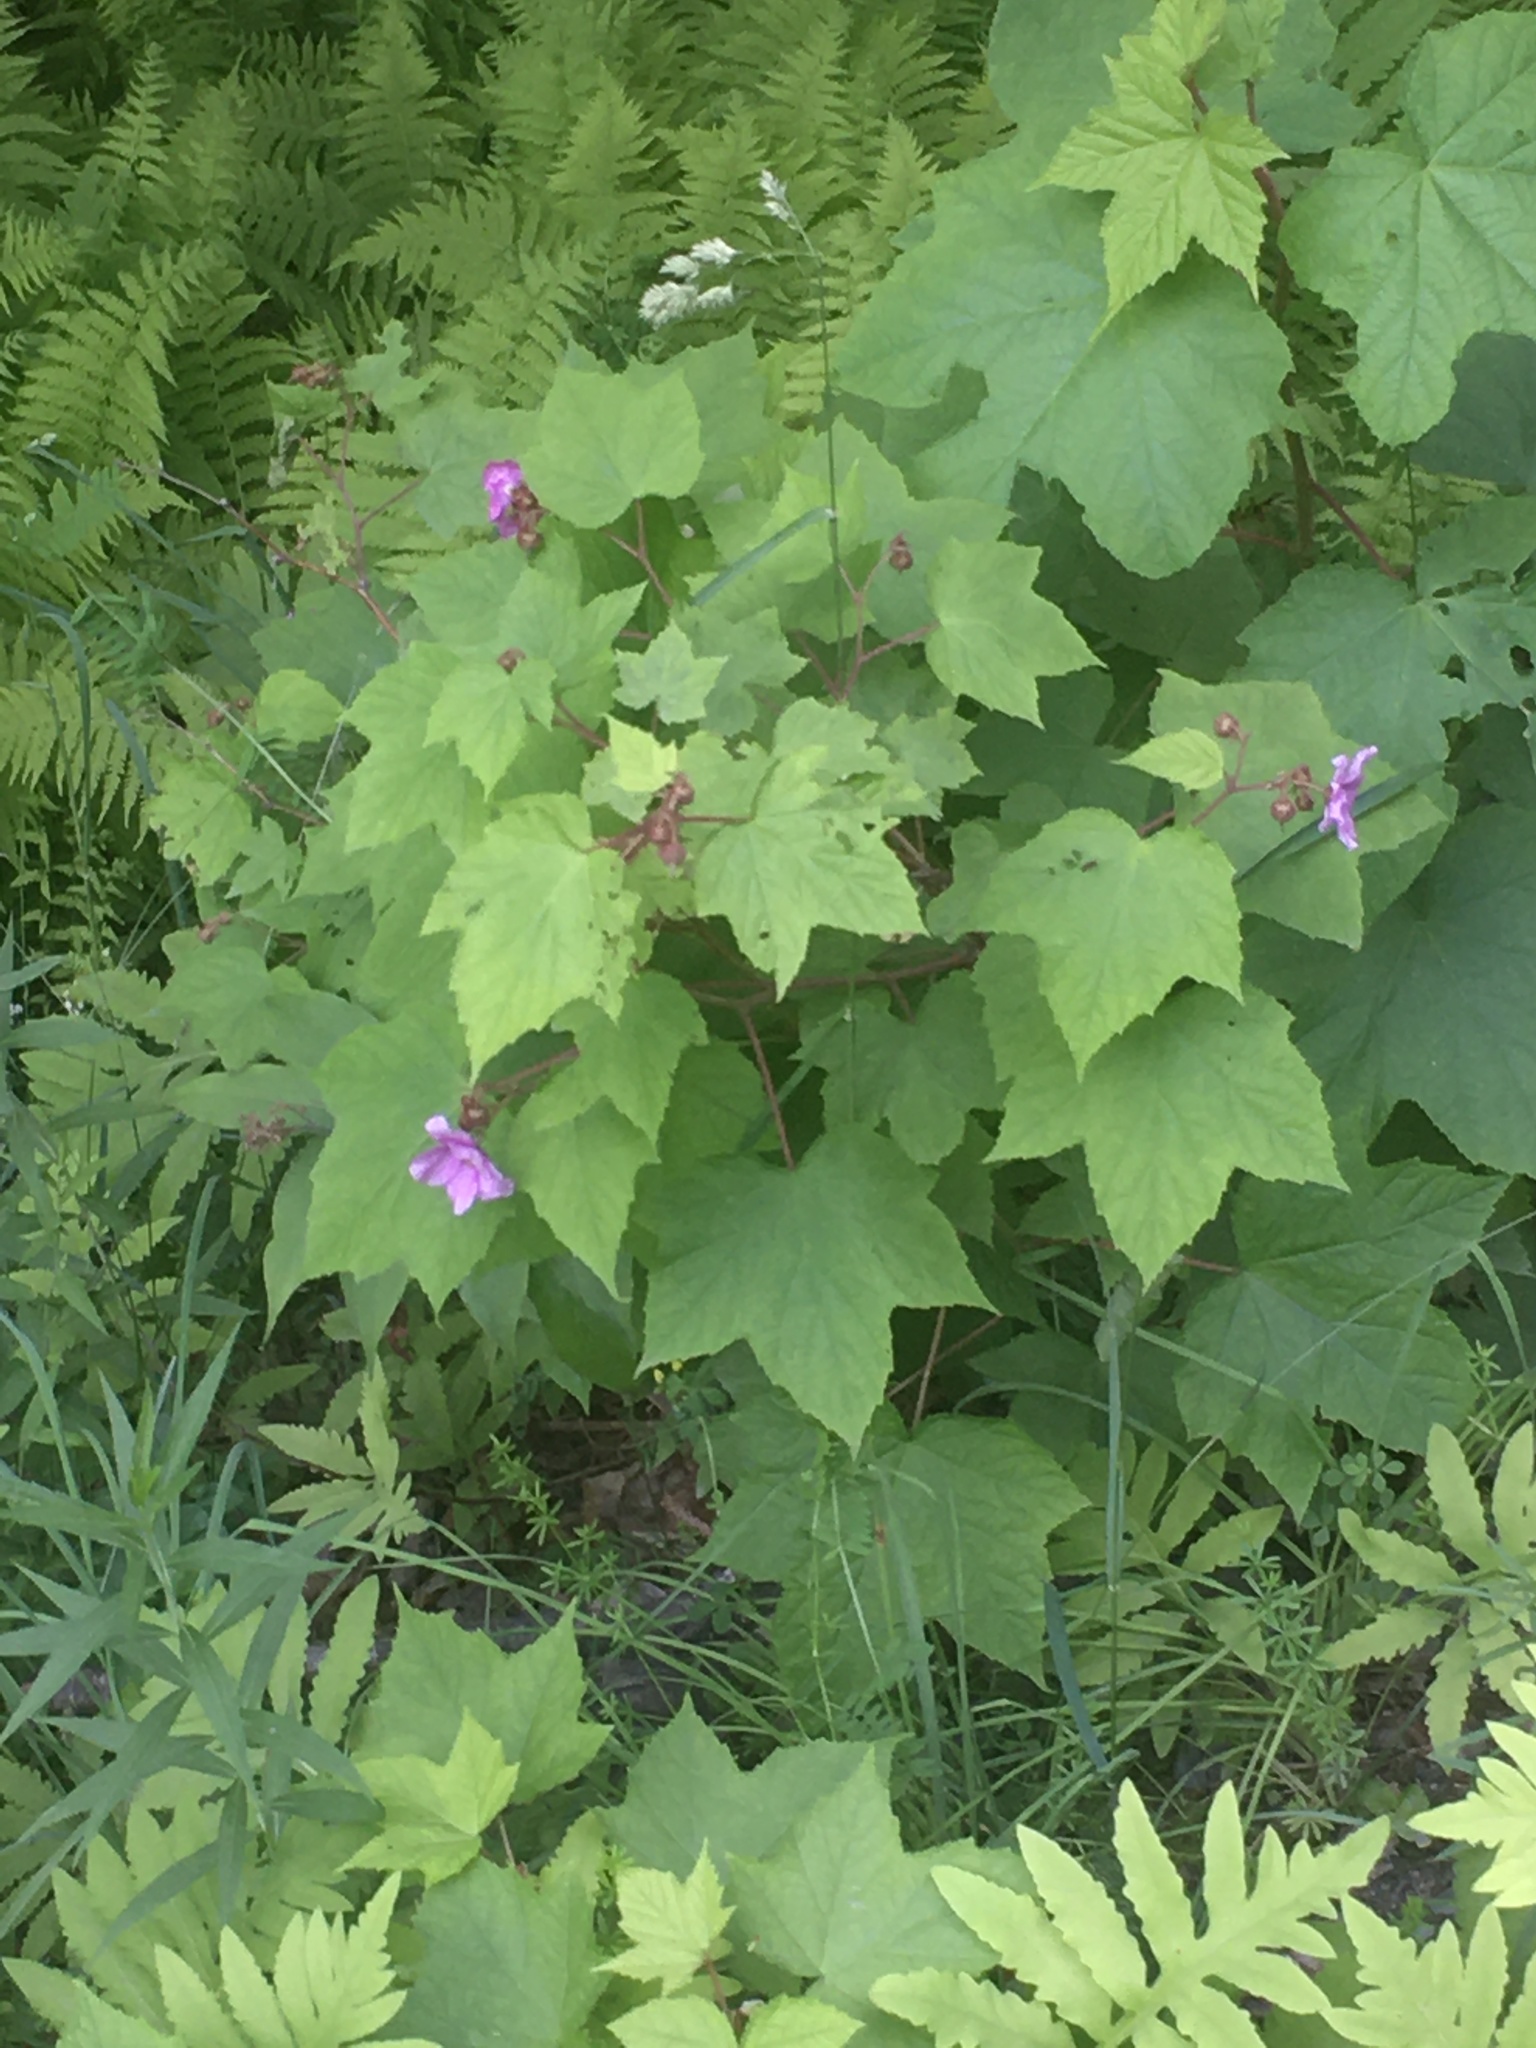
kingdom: Plantae
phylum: Tracheophyta
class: Magnoliopsida
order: Rosales
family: Rosaceae
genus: Rubus
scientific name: Rubus odoratus
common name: Purple-flowered raspberry
